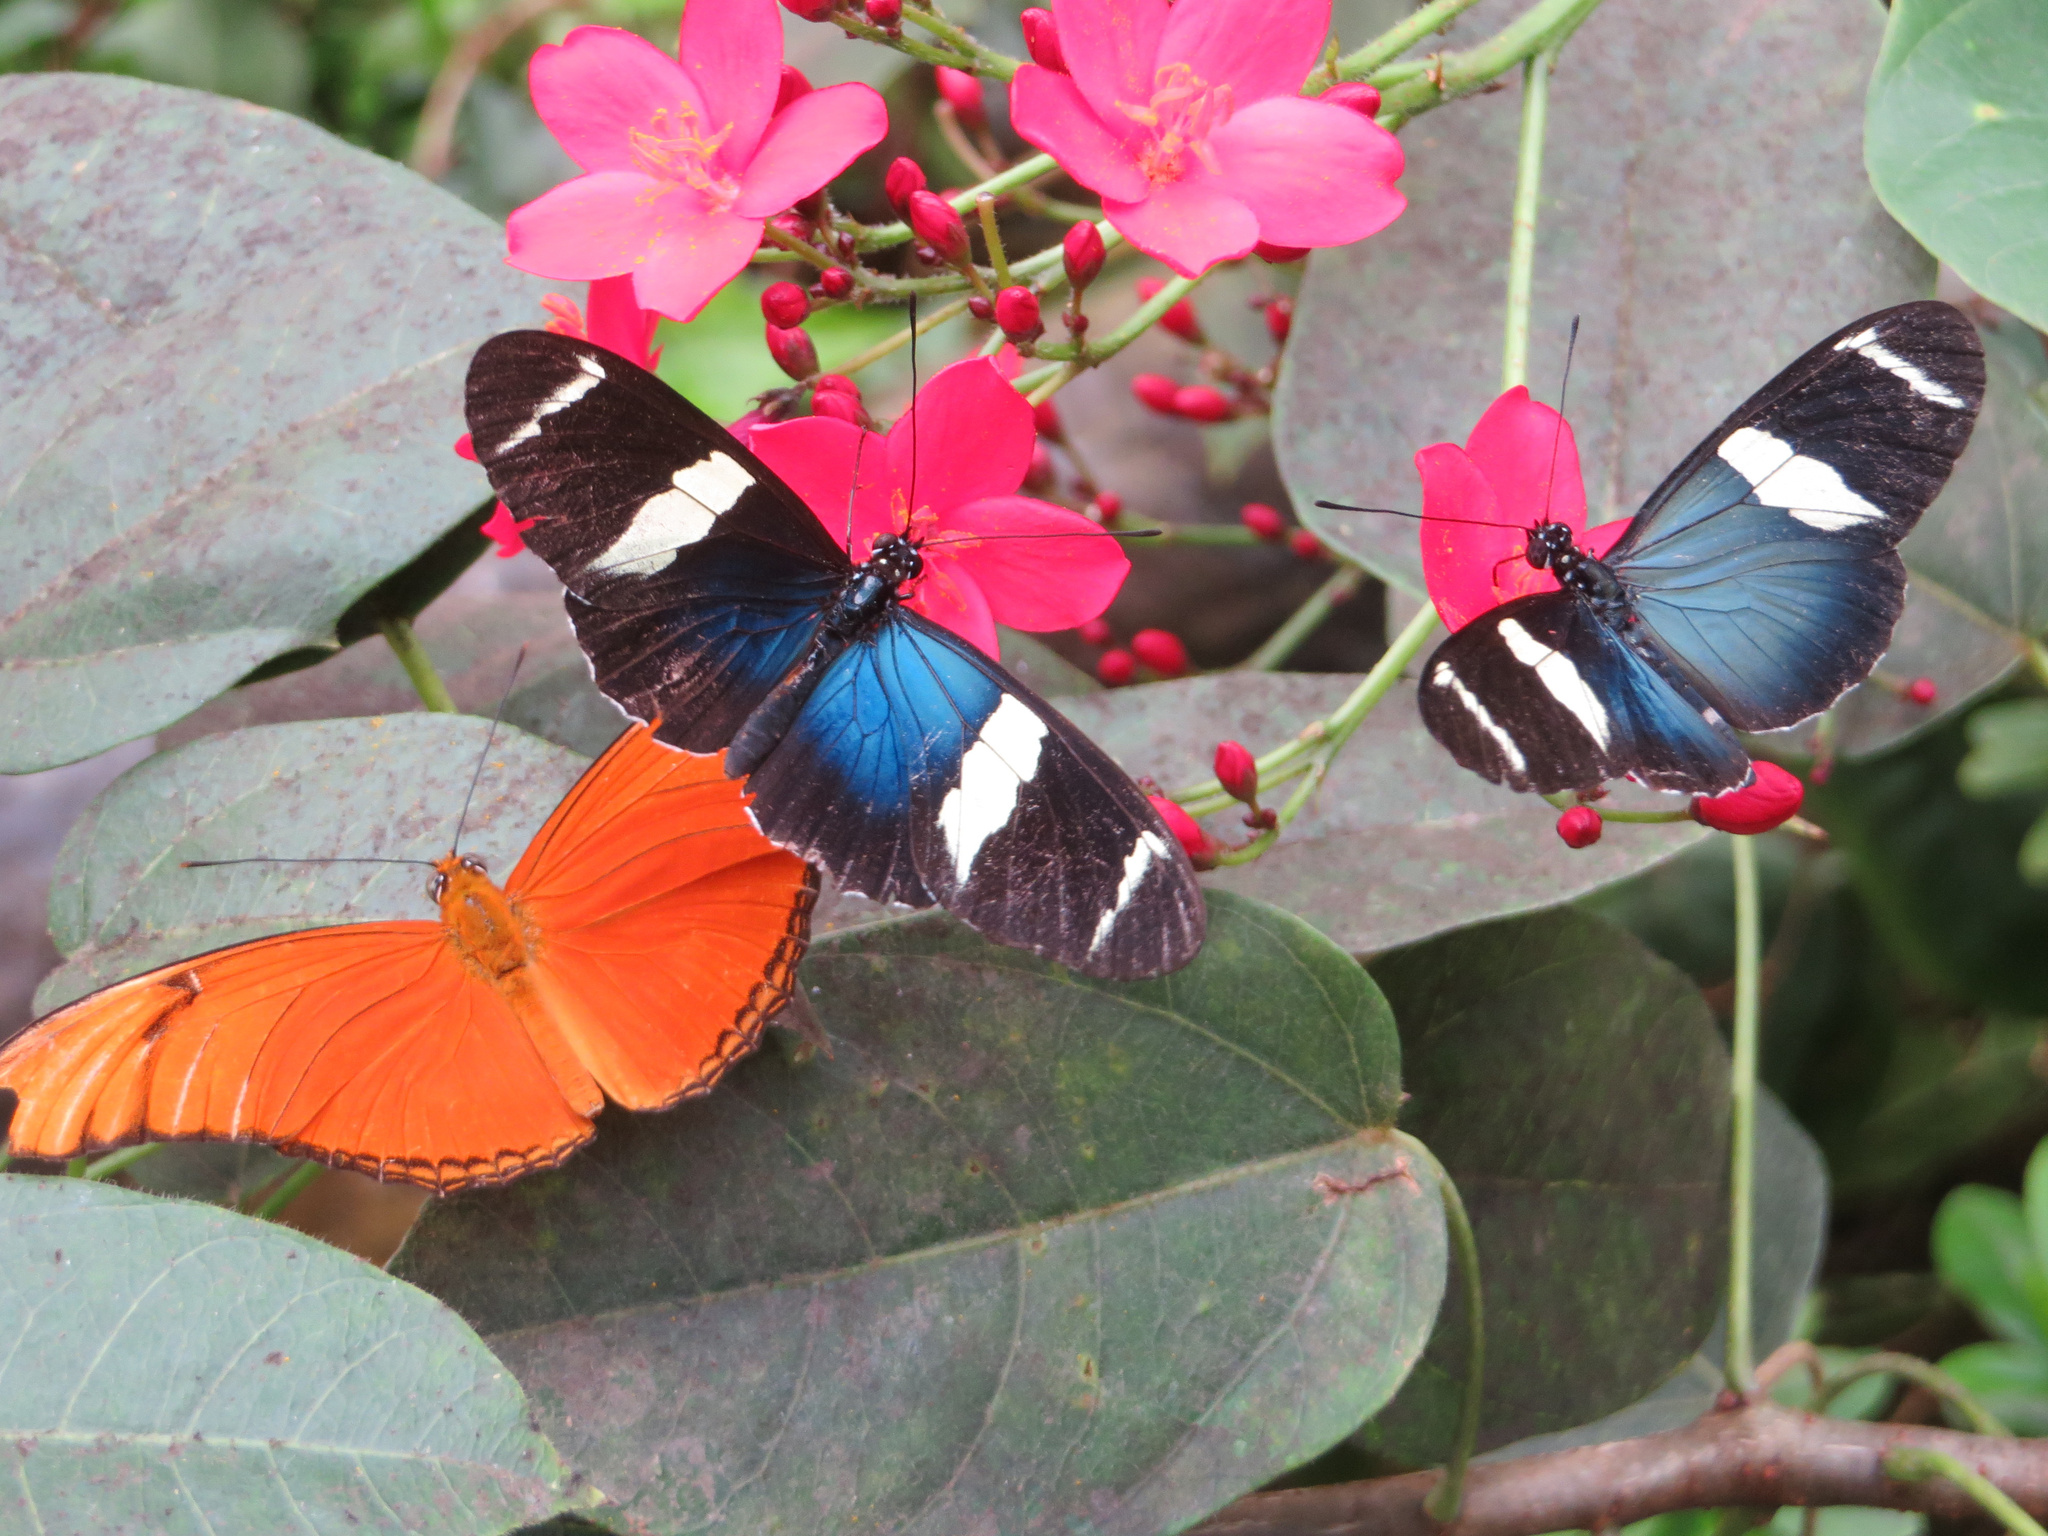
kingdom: Animalia
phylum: Arthropoda
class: Insecta
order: Lepidoptera
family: Nymphalidae
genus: Heliconius
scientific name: Heliconius sara
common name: Sara longwing
